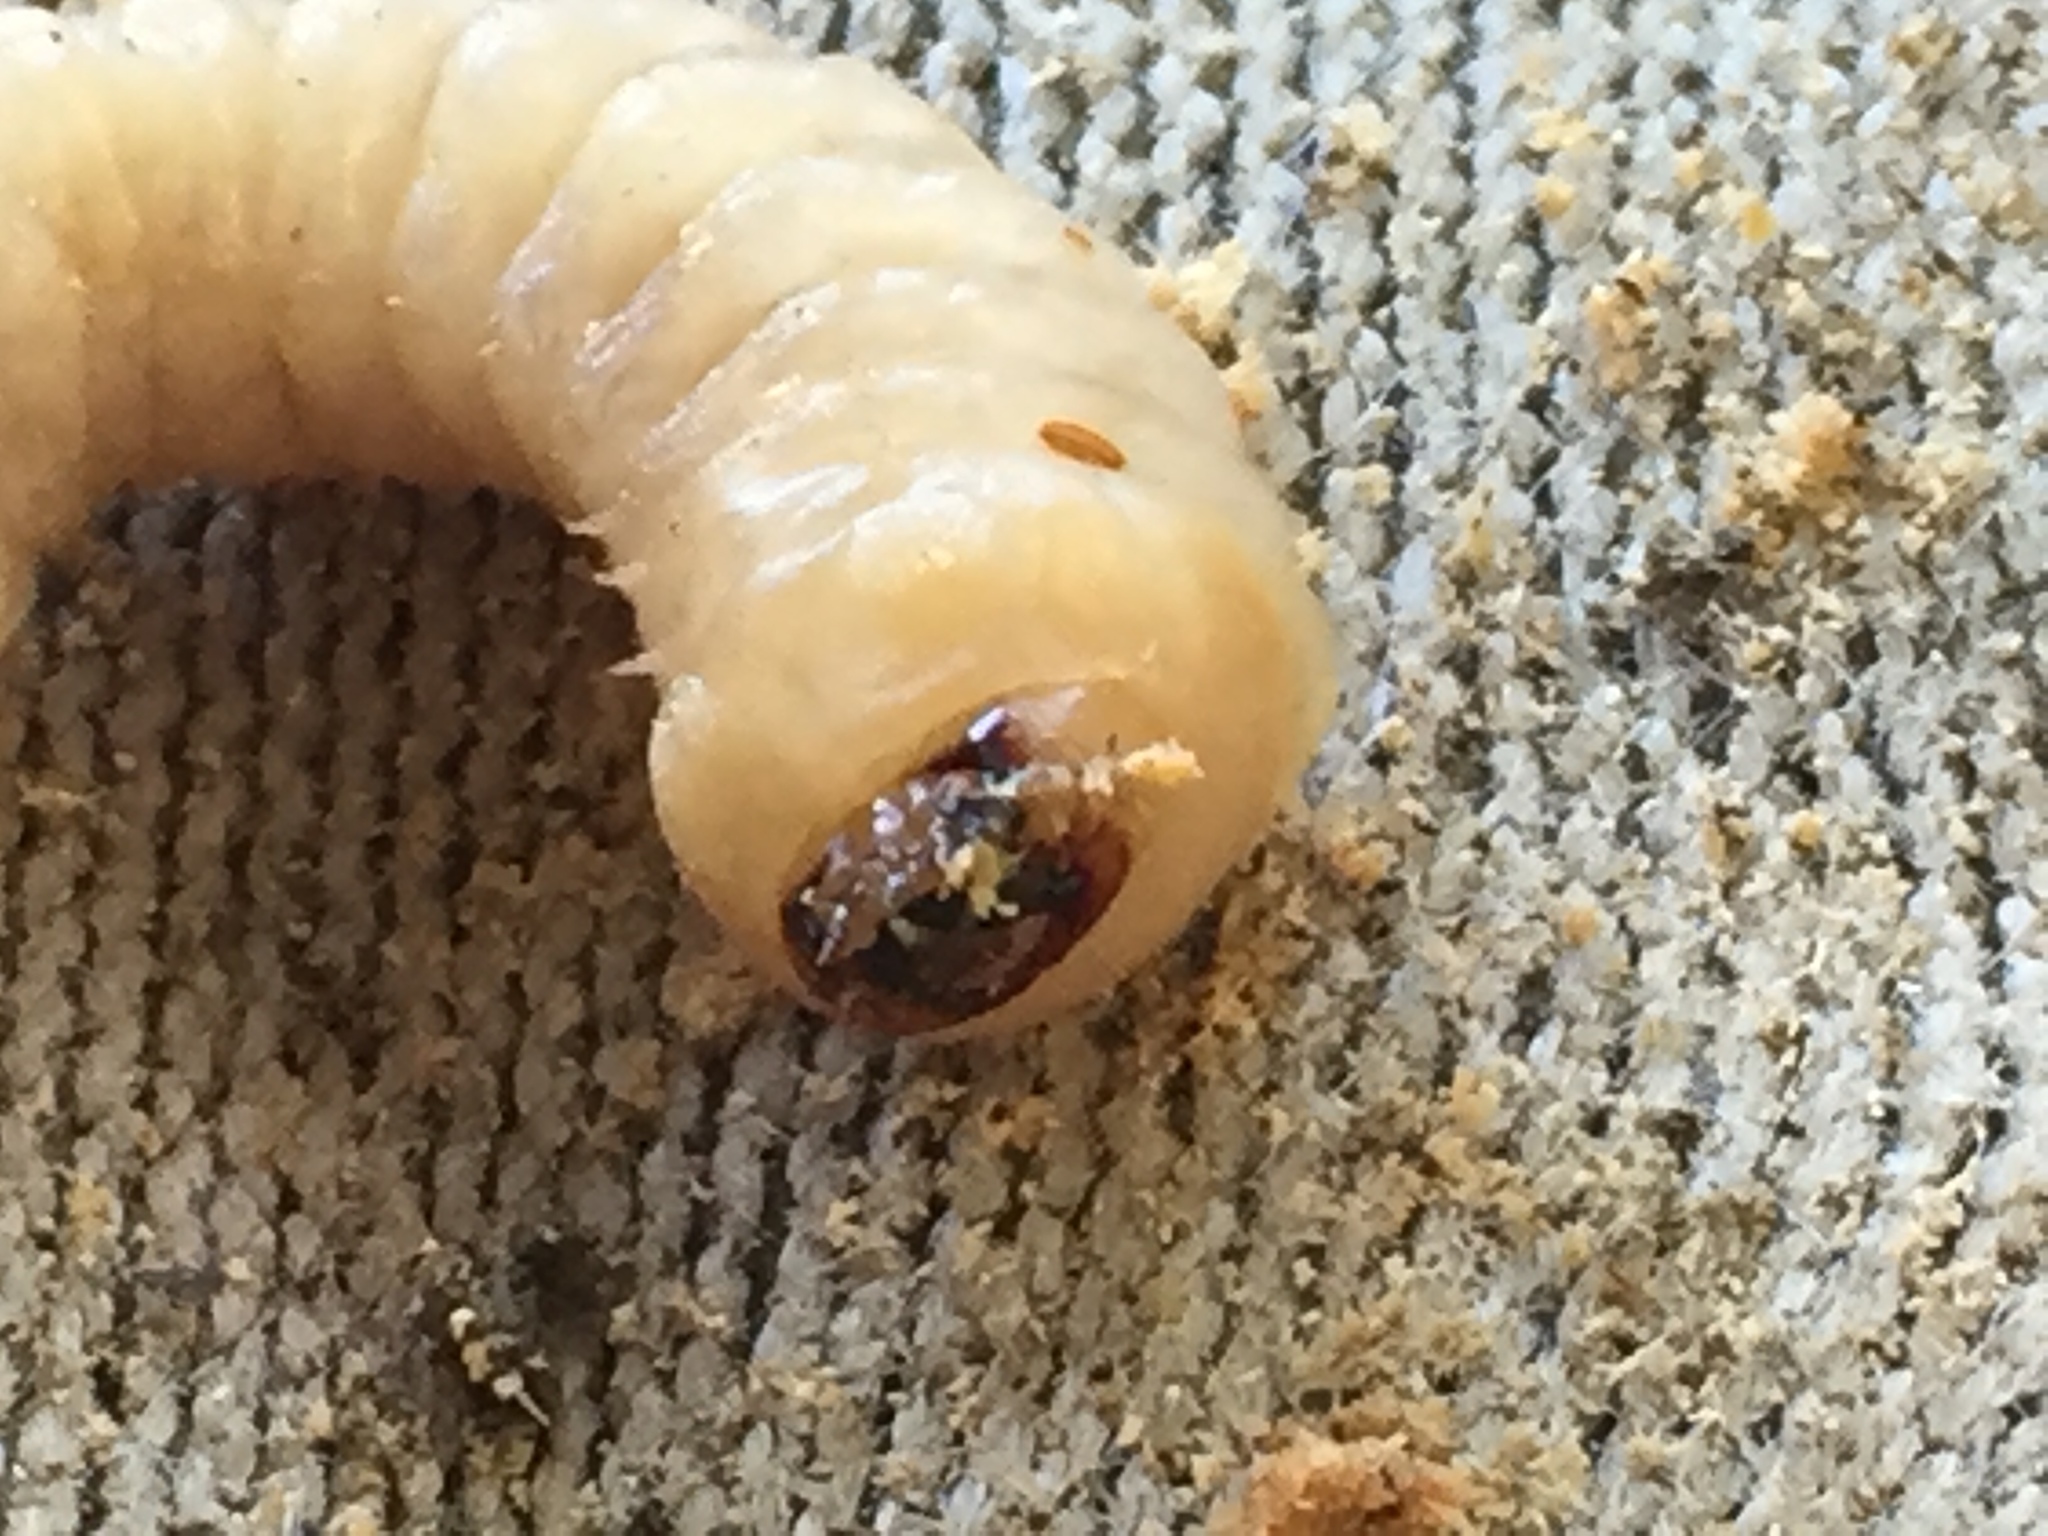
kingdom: Animalia
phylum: Arthropoda
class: Insecta
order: Coleoptera
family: Cerambycidae
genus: Prionoplus
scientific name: Prionoplus reticularis
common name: Huhu beetle
